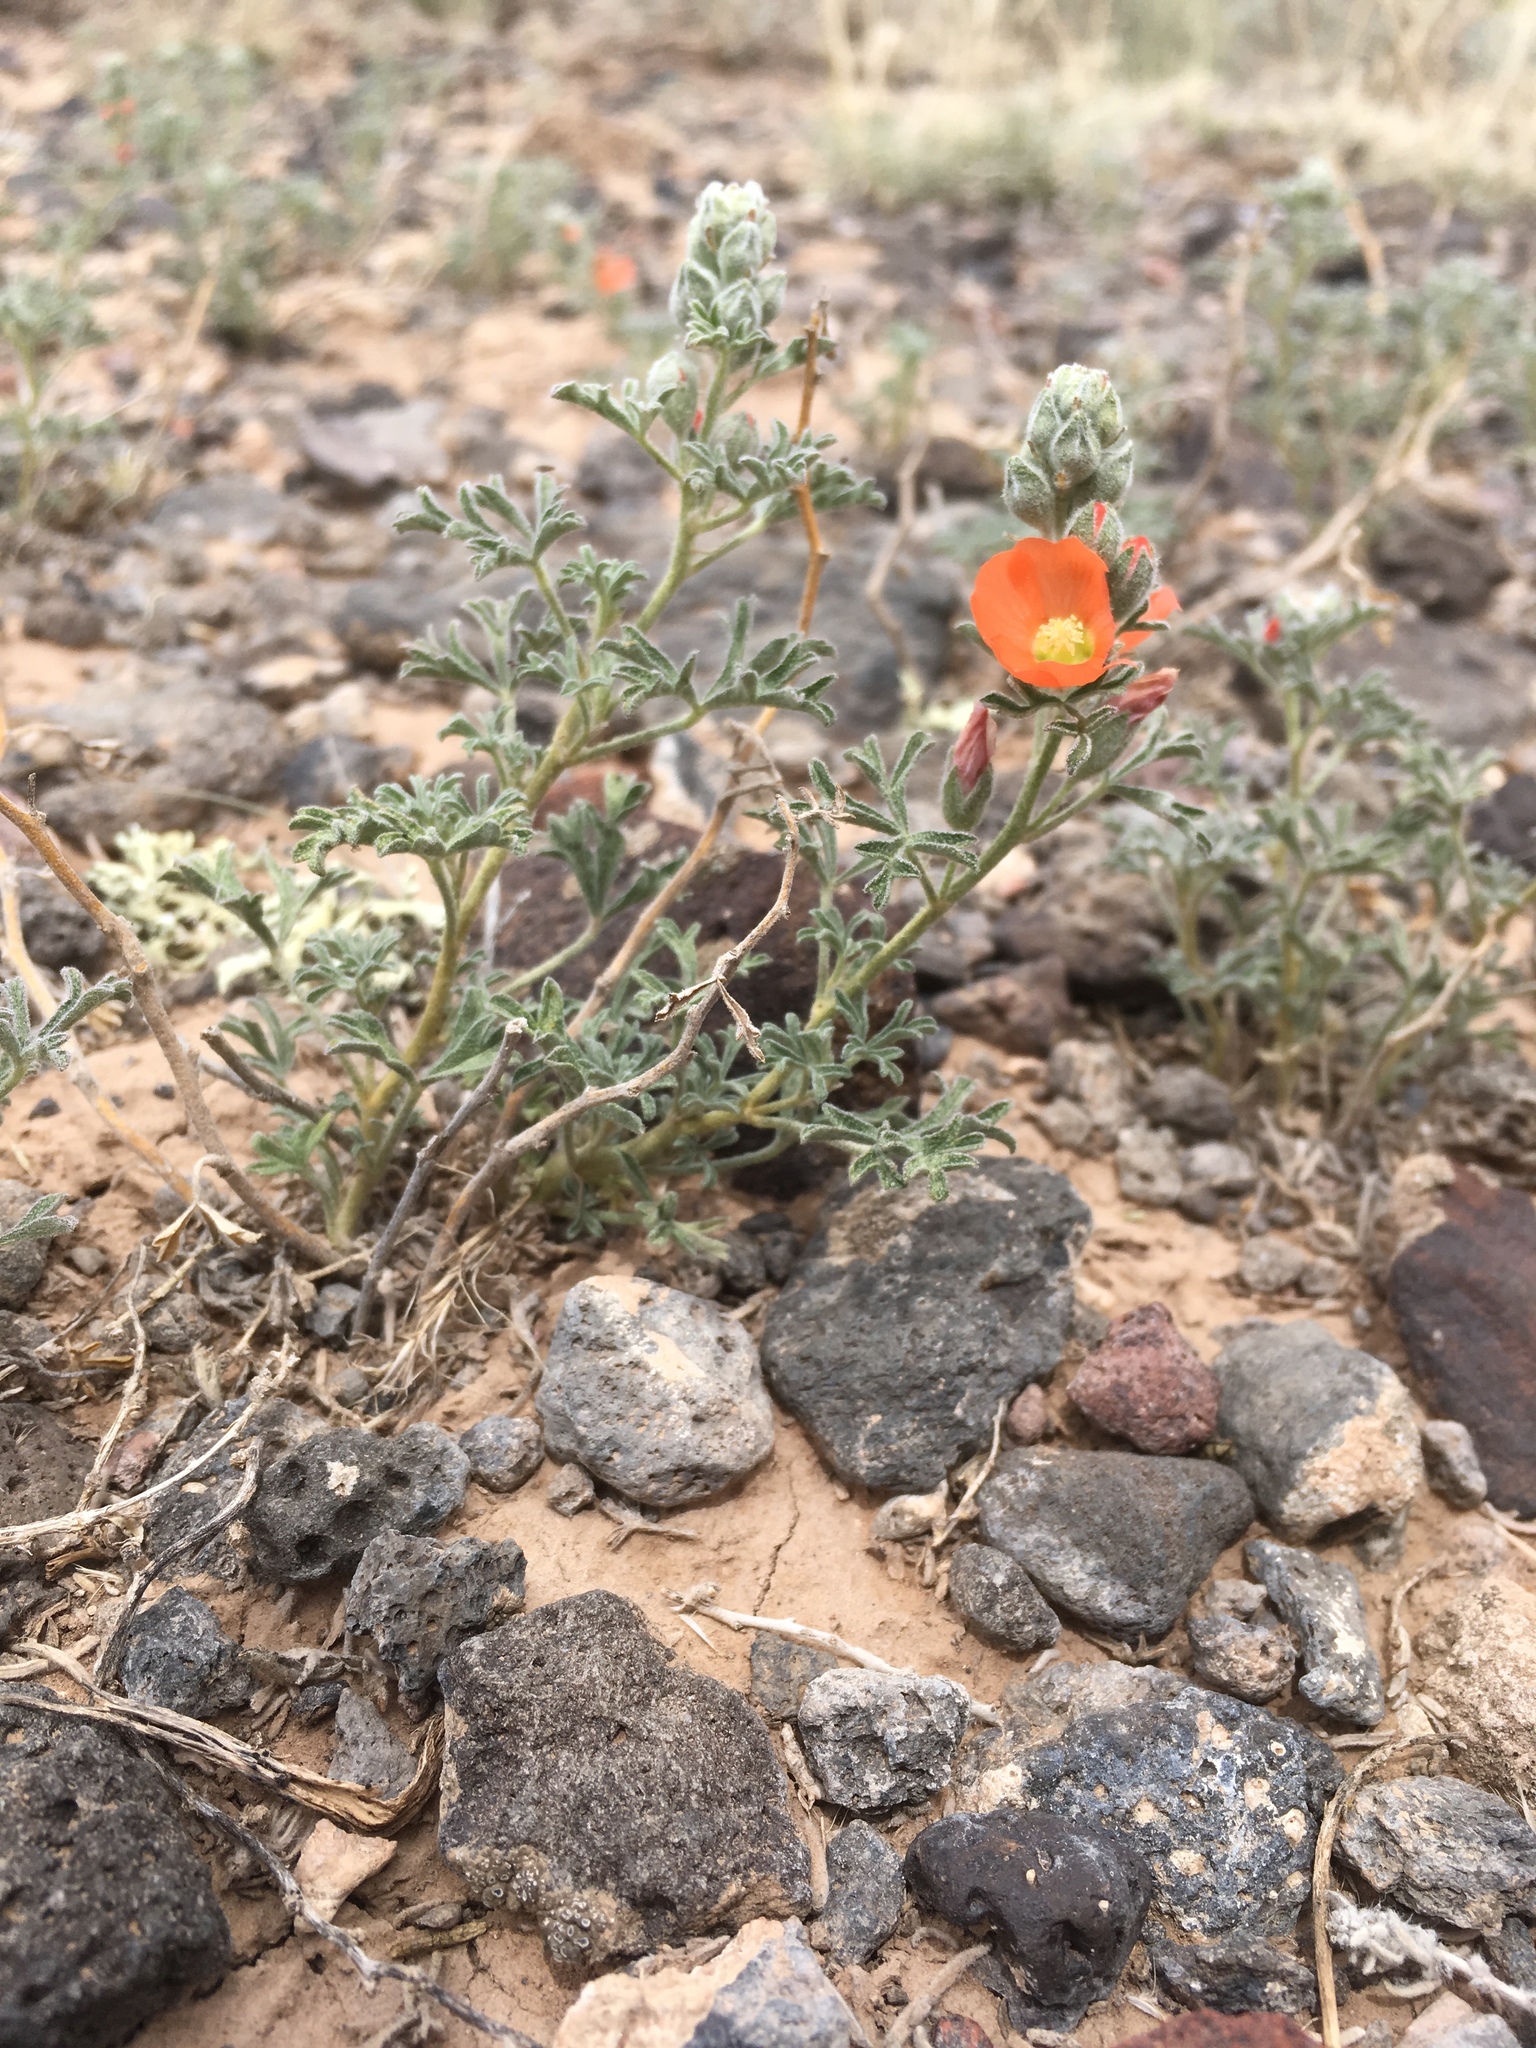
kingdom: Plantae
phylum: Tracheophyta
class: Magnoliopsida
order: Malvales
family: Malvaceae
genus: Sphaeralcea
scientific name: Sphaeralcea coccinea
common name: Moss-rose
